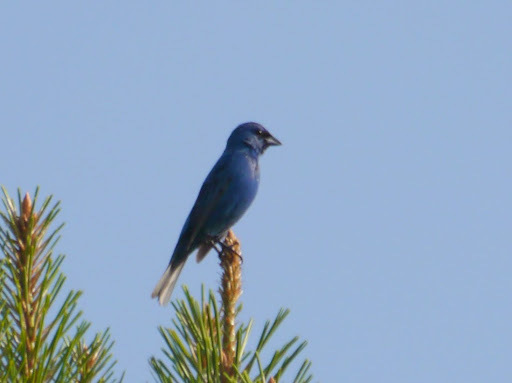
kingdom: Animalia
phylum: Chordata
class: Aves
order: Passeriformes
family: Cardinalidae
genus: Passerina
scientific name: Passerina cyanea
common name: Indigo bunting
